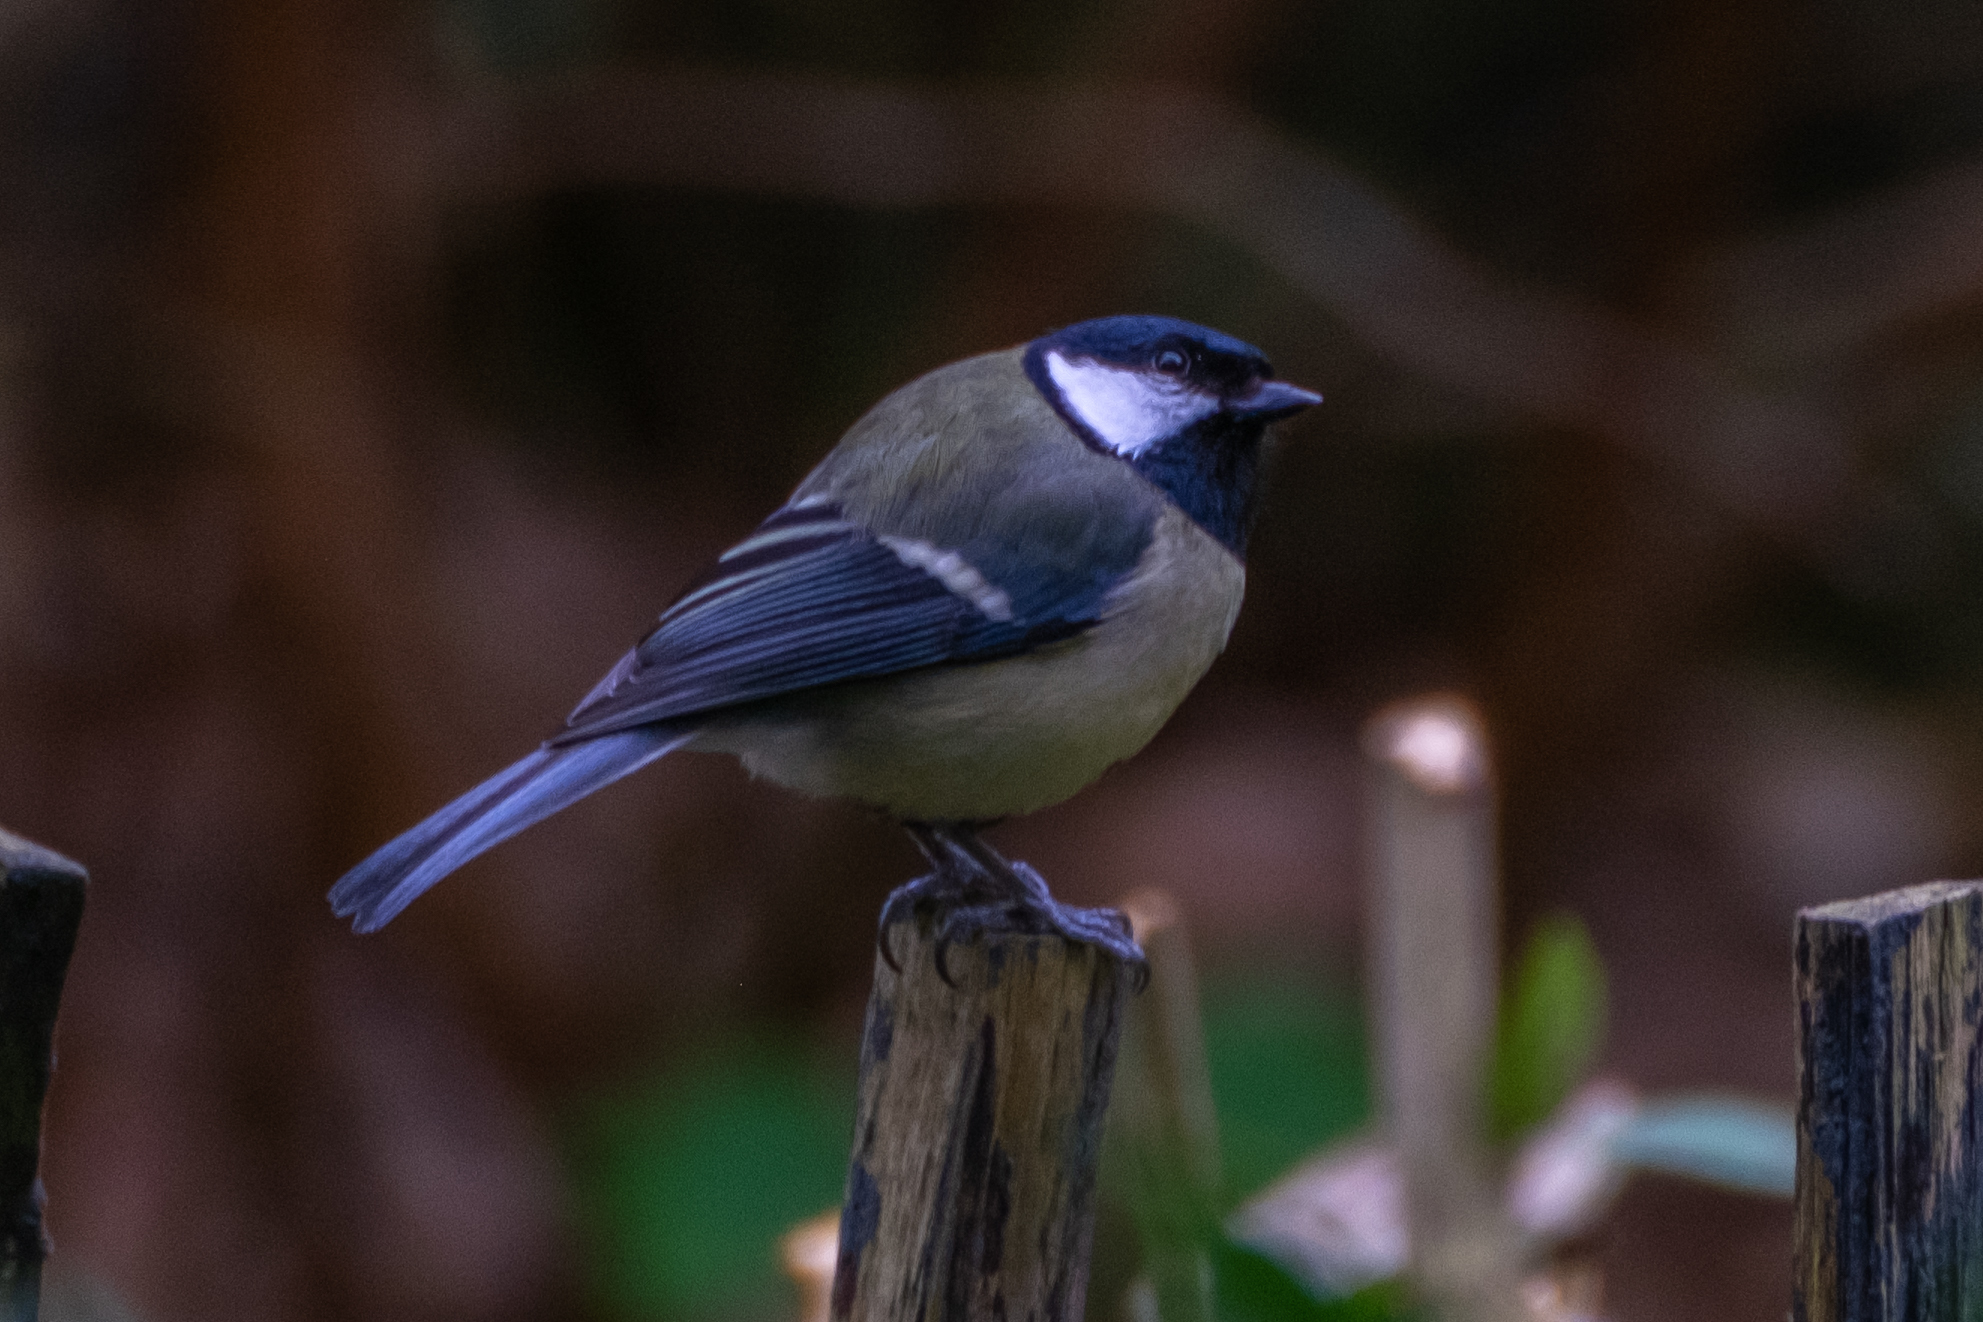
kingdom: Animalia
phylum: Chordata
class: Aves
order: Passeriformes
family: Paridae
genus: Parus
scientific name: Parus major
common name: Great tit
